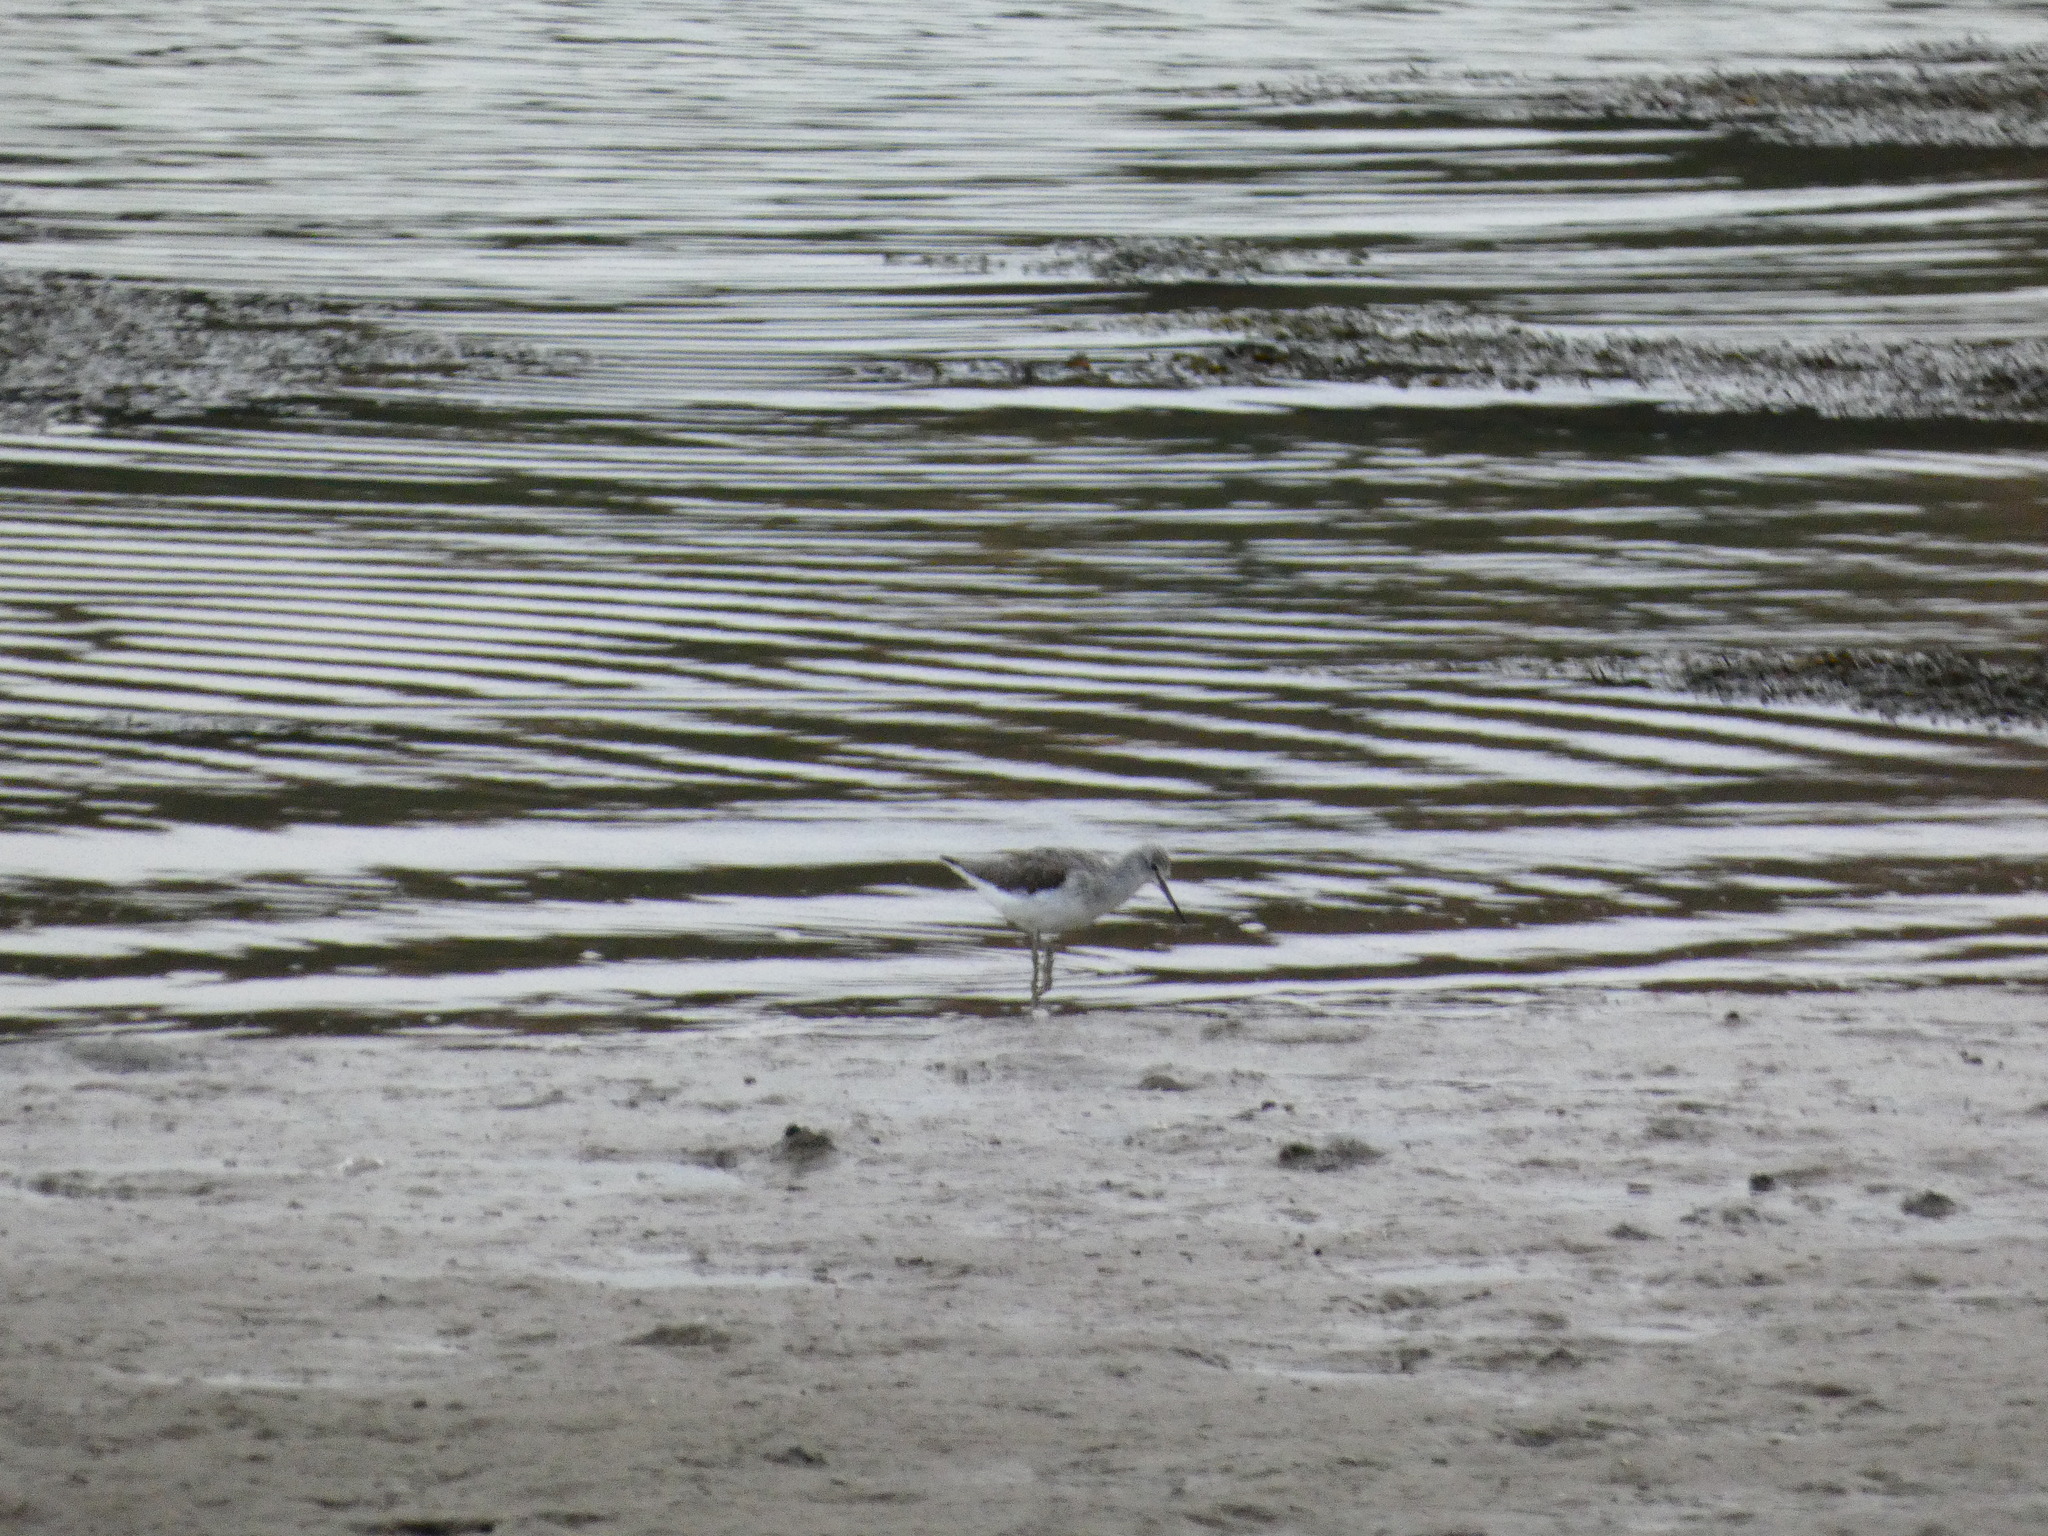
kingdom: Animalia
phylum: Chordata
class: Aves
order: Charadriiformes
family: Scolopacidae
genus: Tringa
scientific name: Tringa nebularia
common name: Common greenshank
